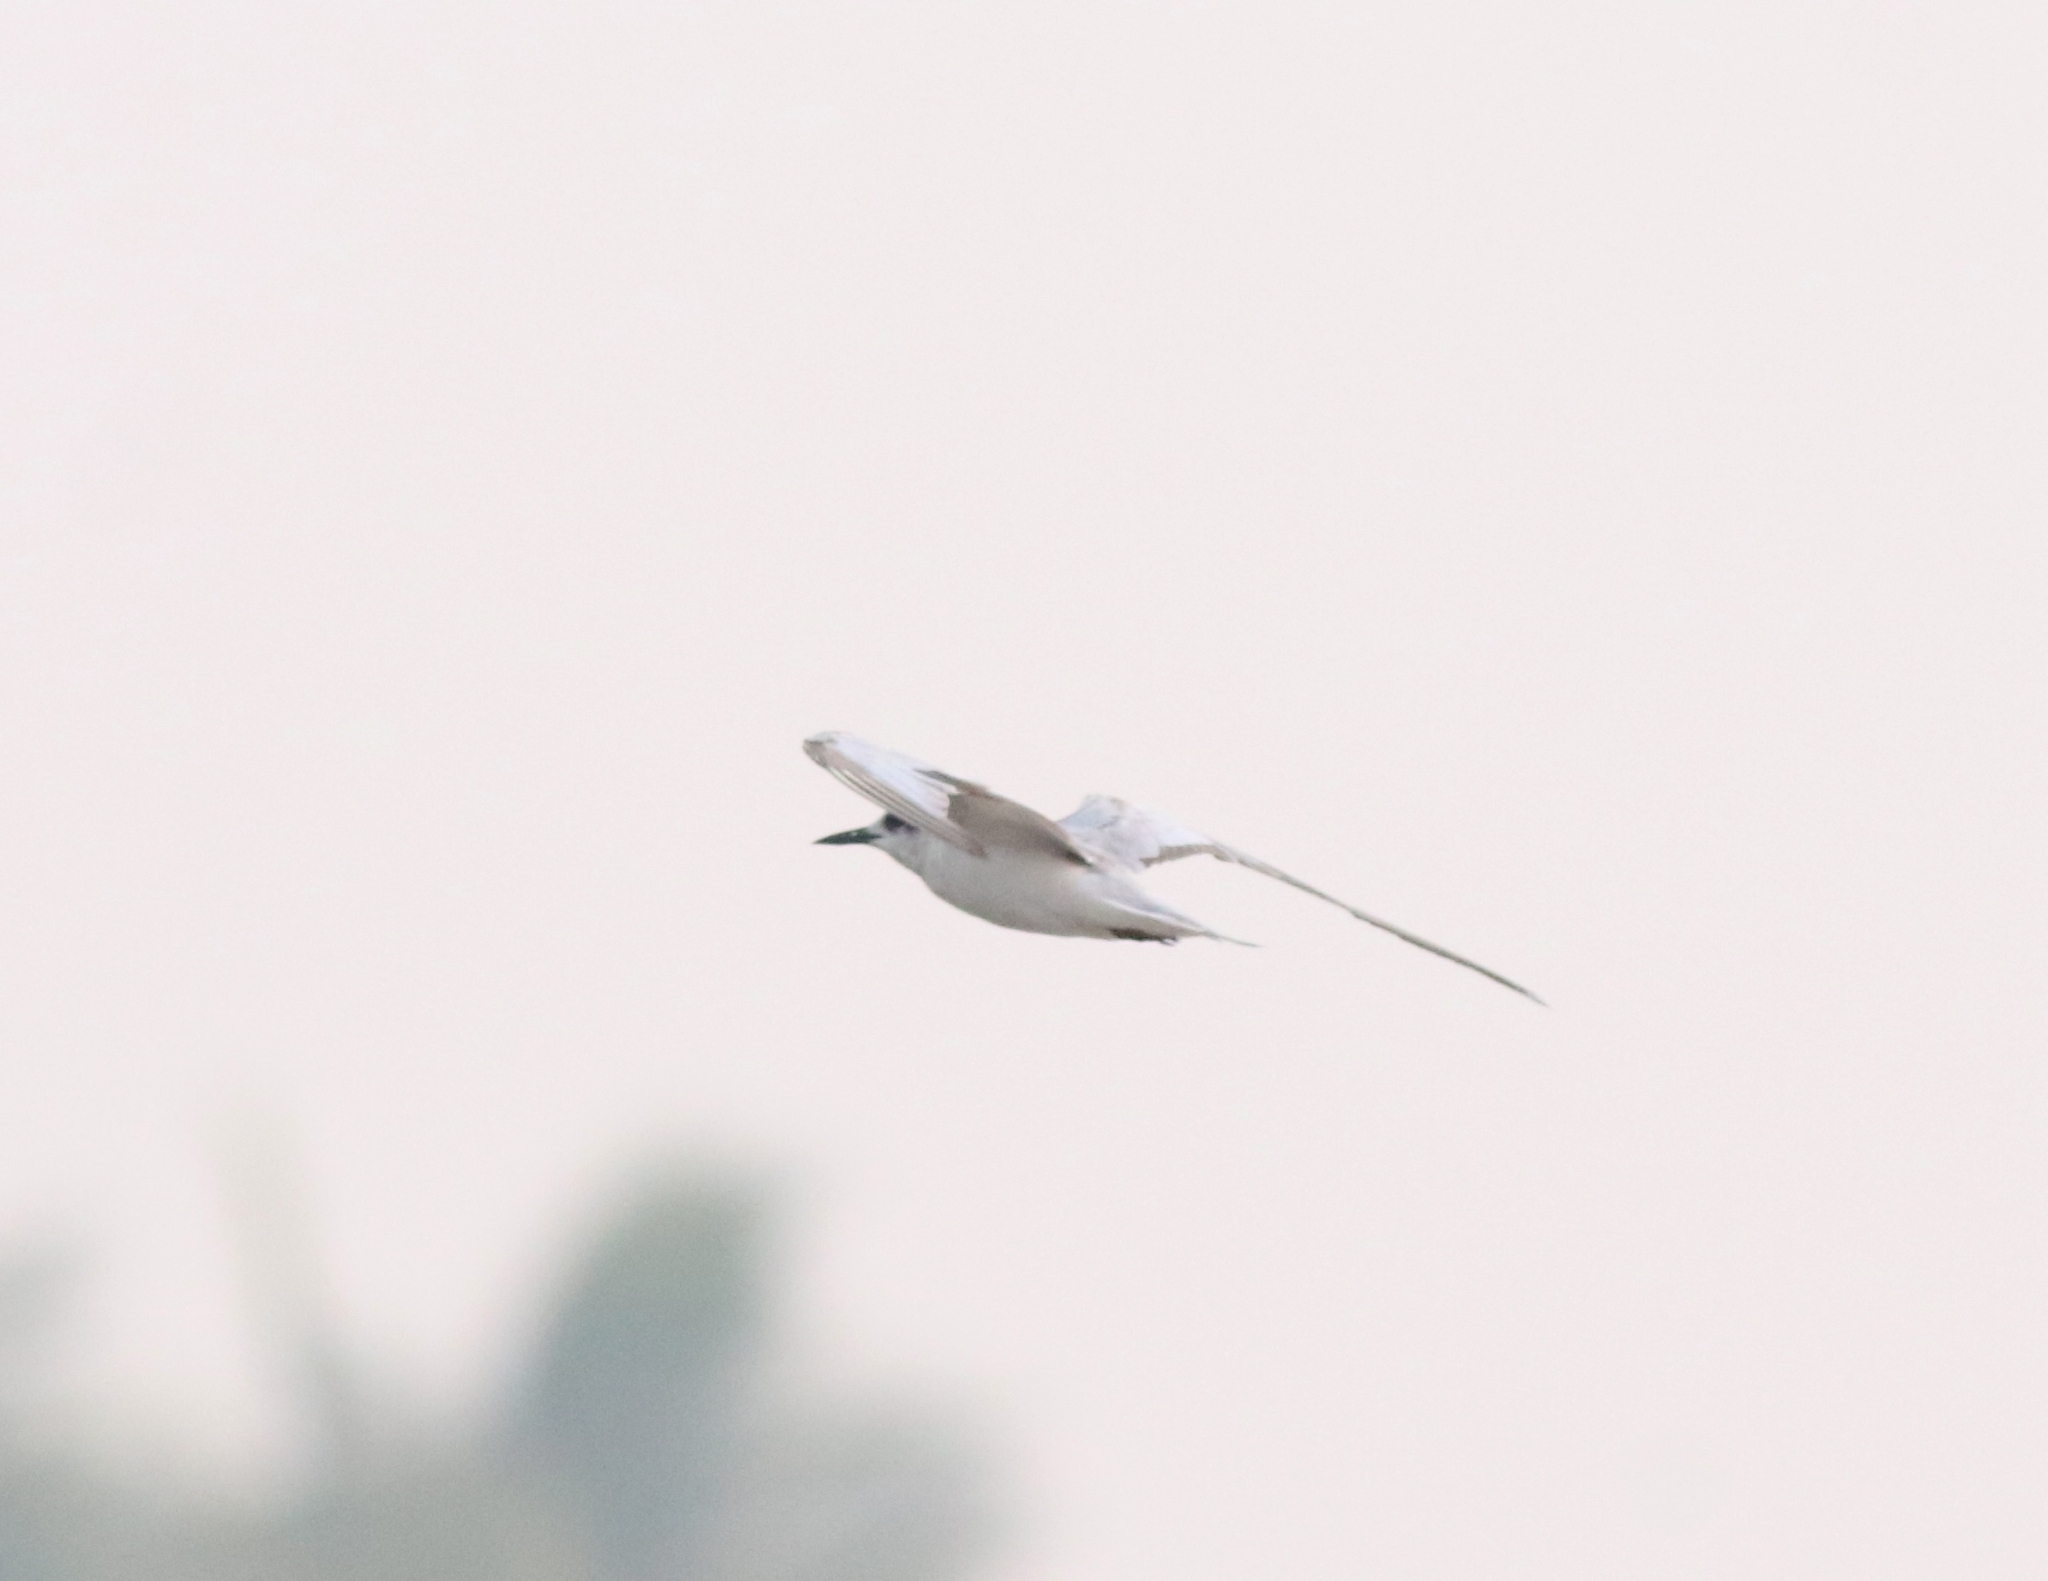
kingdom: Animalia
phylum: Chordata
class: Aves
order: Charadriiformes
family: Laridae
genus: Chlidonias
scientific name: Chlidonias hybrida
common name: Whiskered tern
